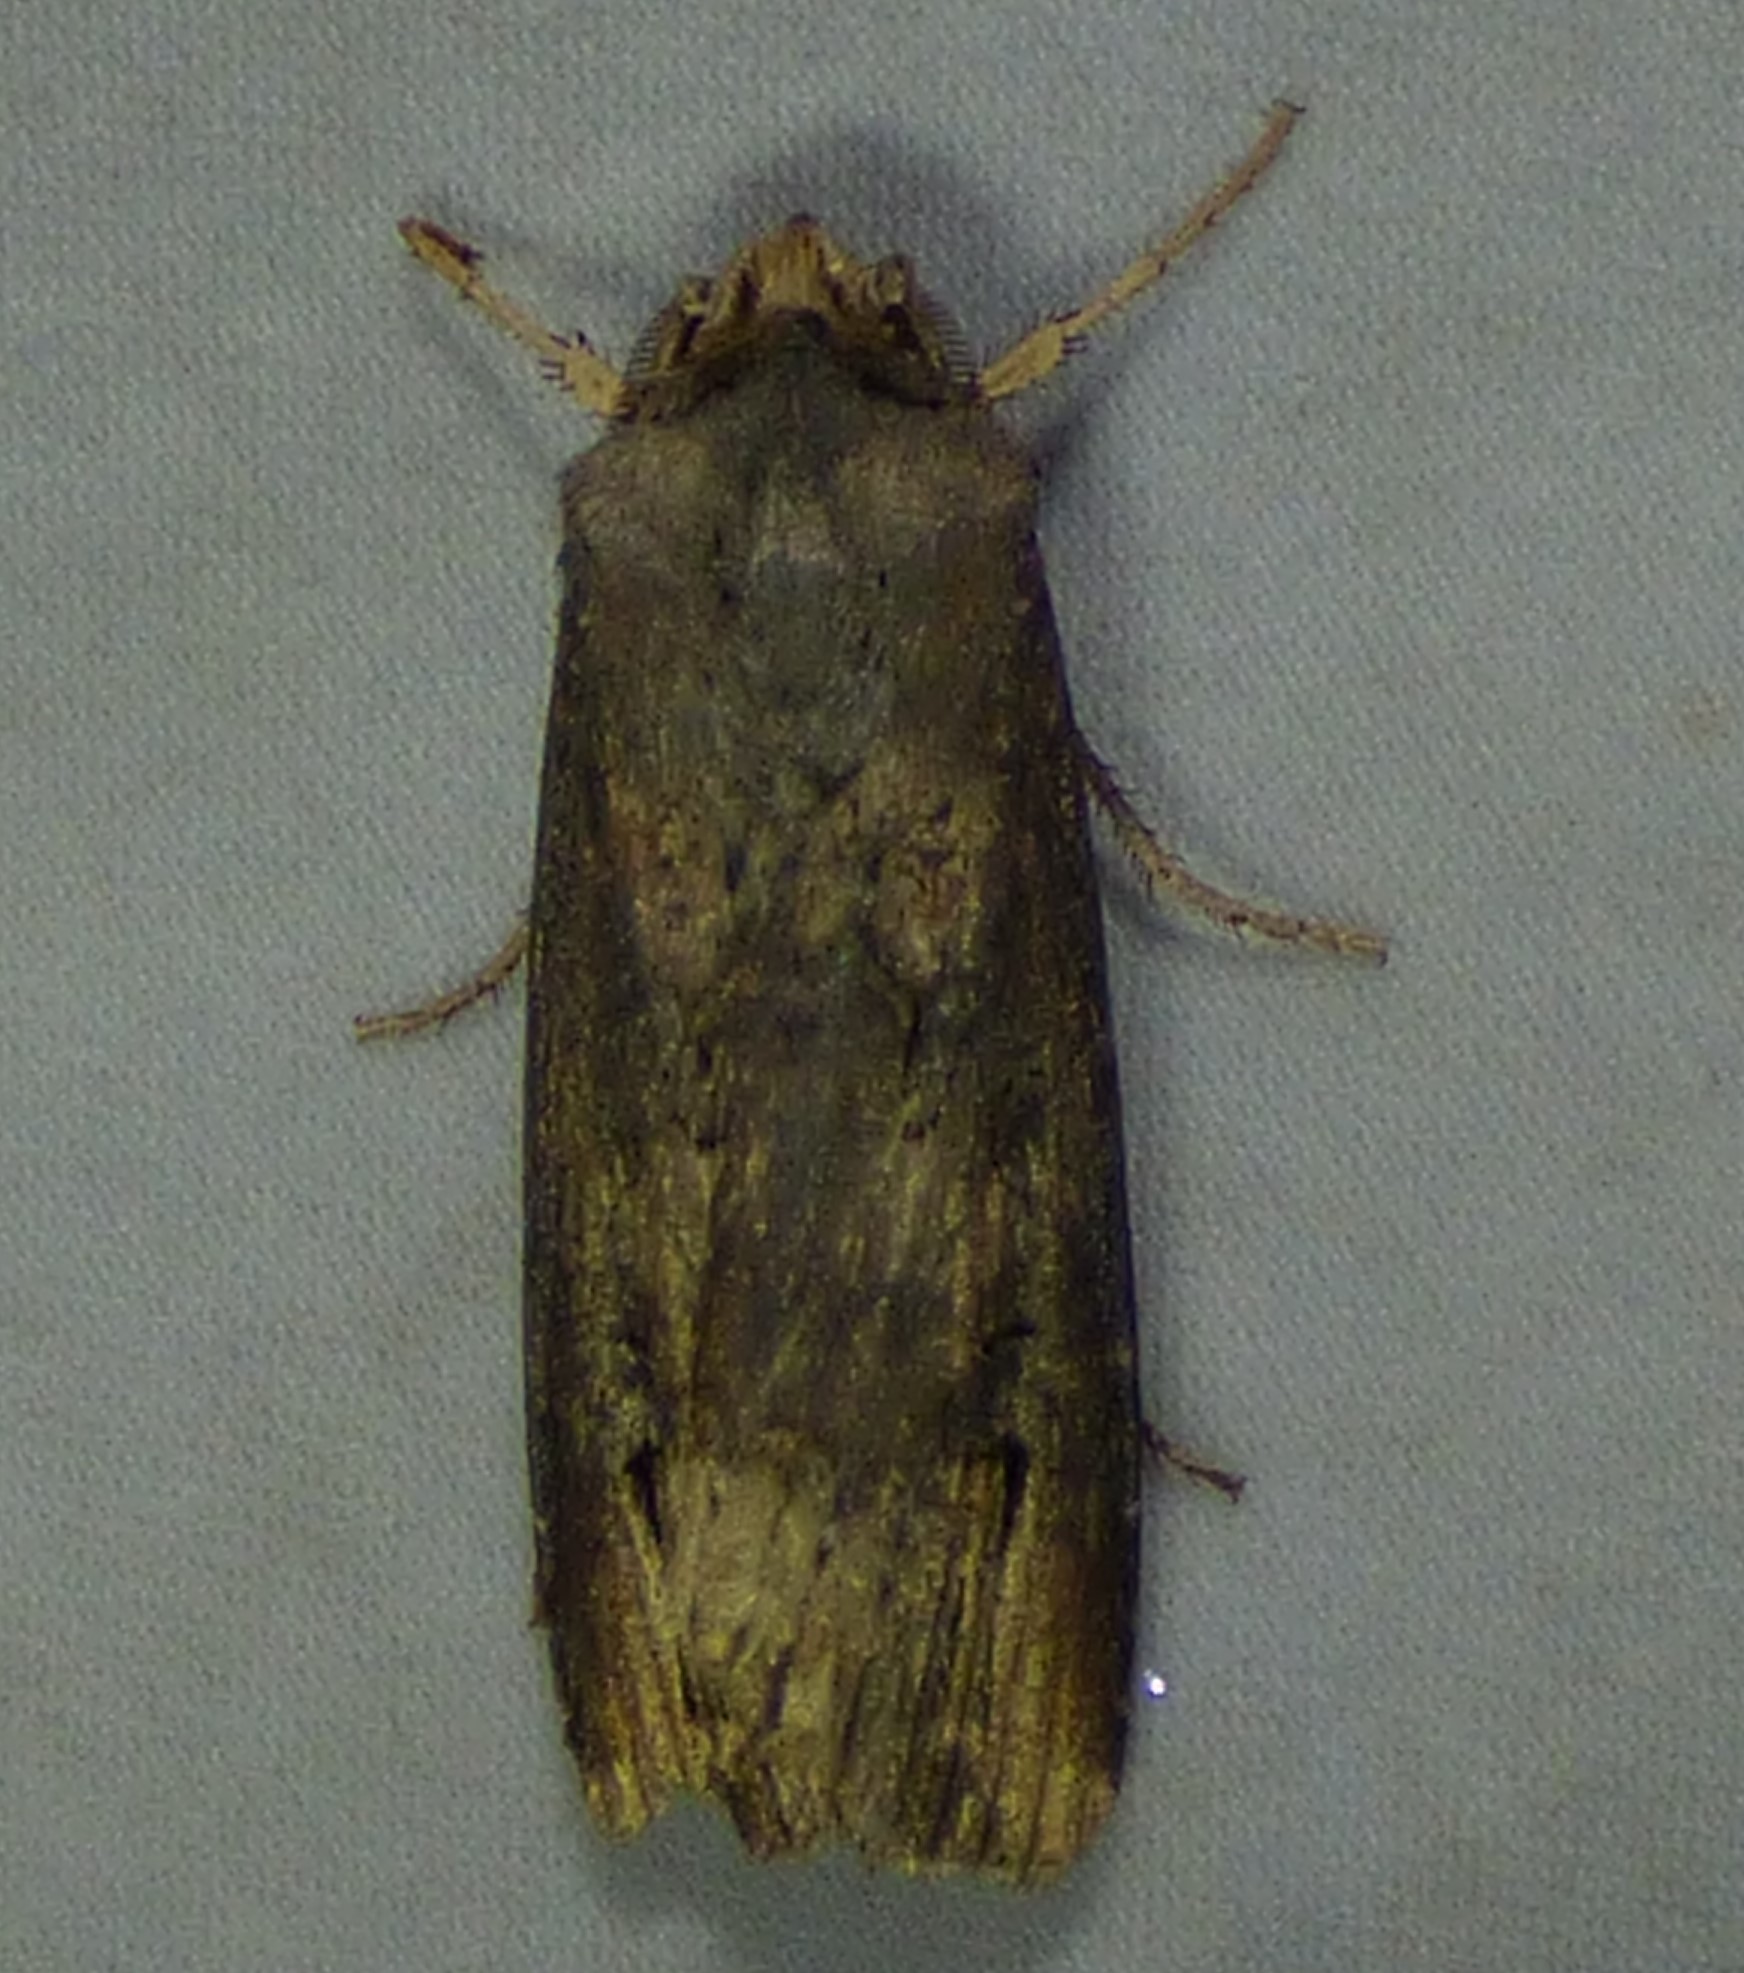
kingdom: Animalia
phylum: Arthropoda
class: Insecta
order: Lepidoptera
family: Noctuidae
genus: Agrotis
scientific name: Agrotis ipsilon
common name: Dark sword-grass
